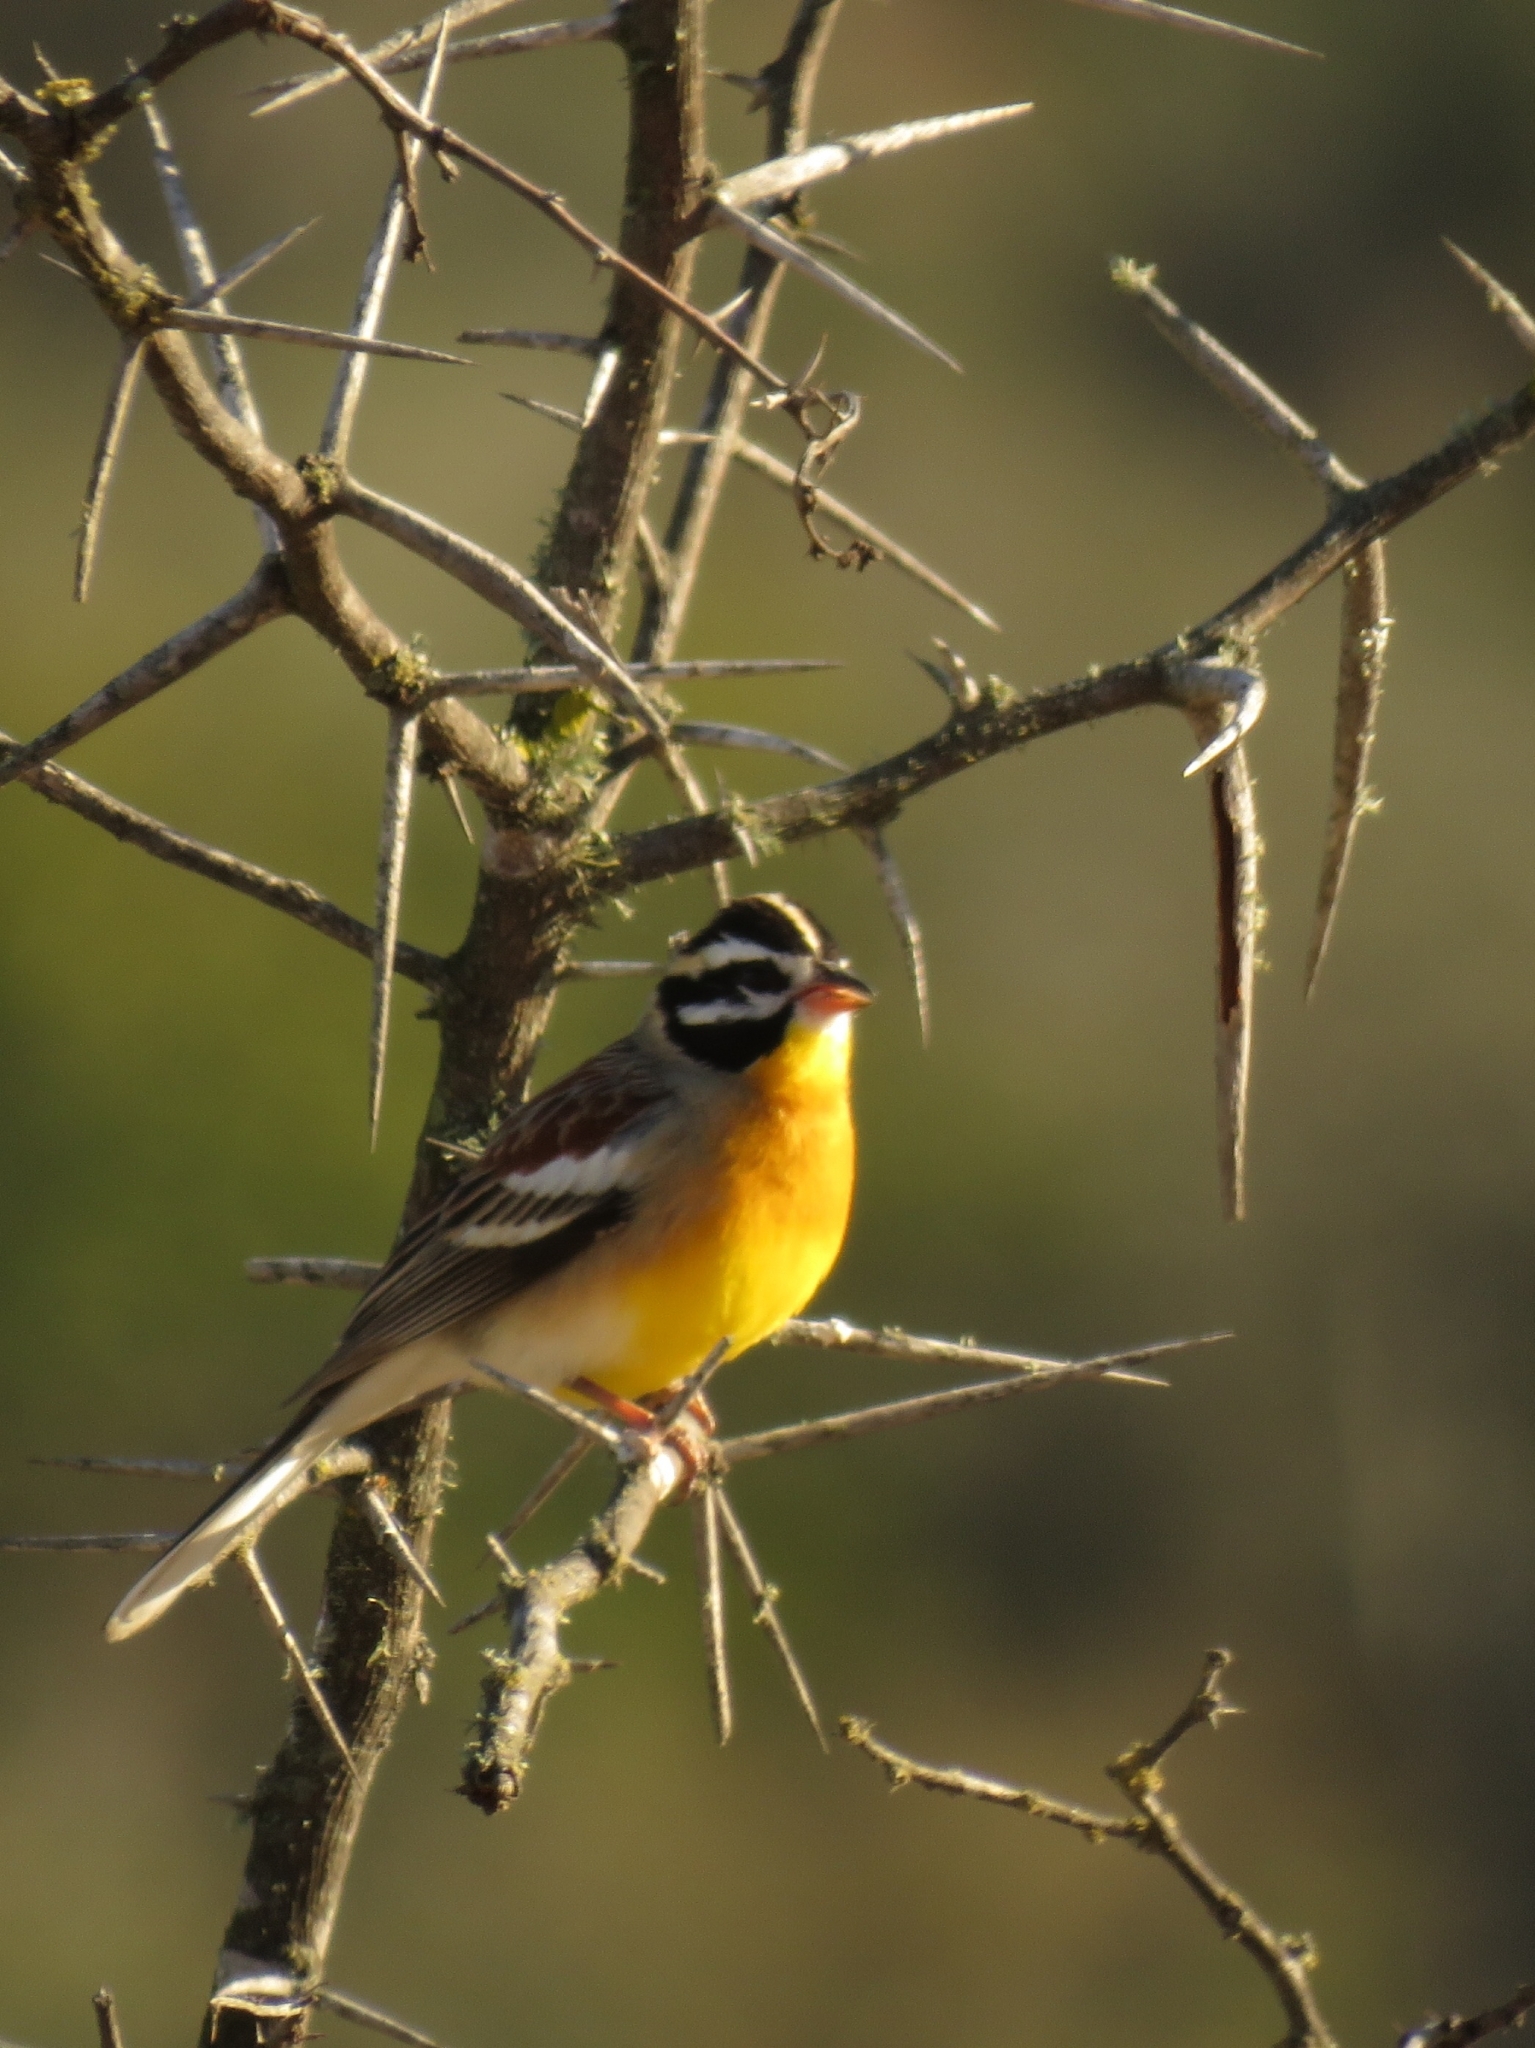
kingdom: Animalia
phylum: Chordata
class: Aves
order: Passeriformes
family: Emberizidae
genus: Emberiza
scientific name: Emberiza flaviventris
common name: Golden-breasted bunting
